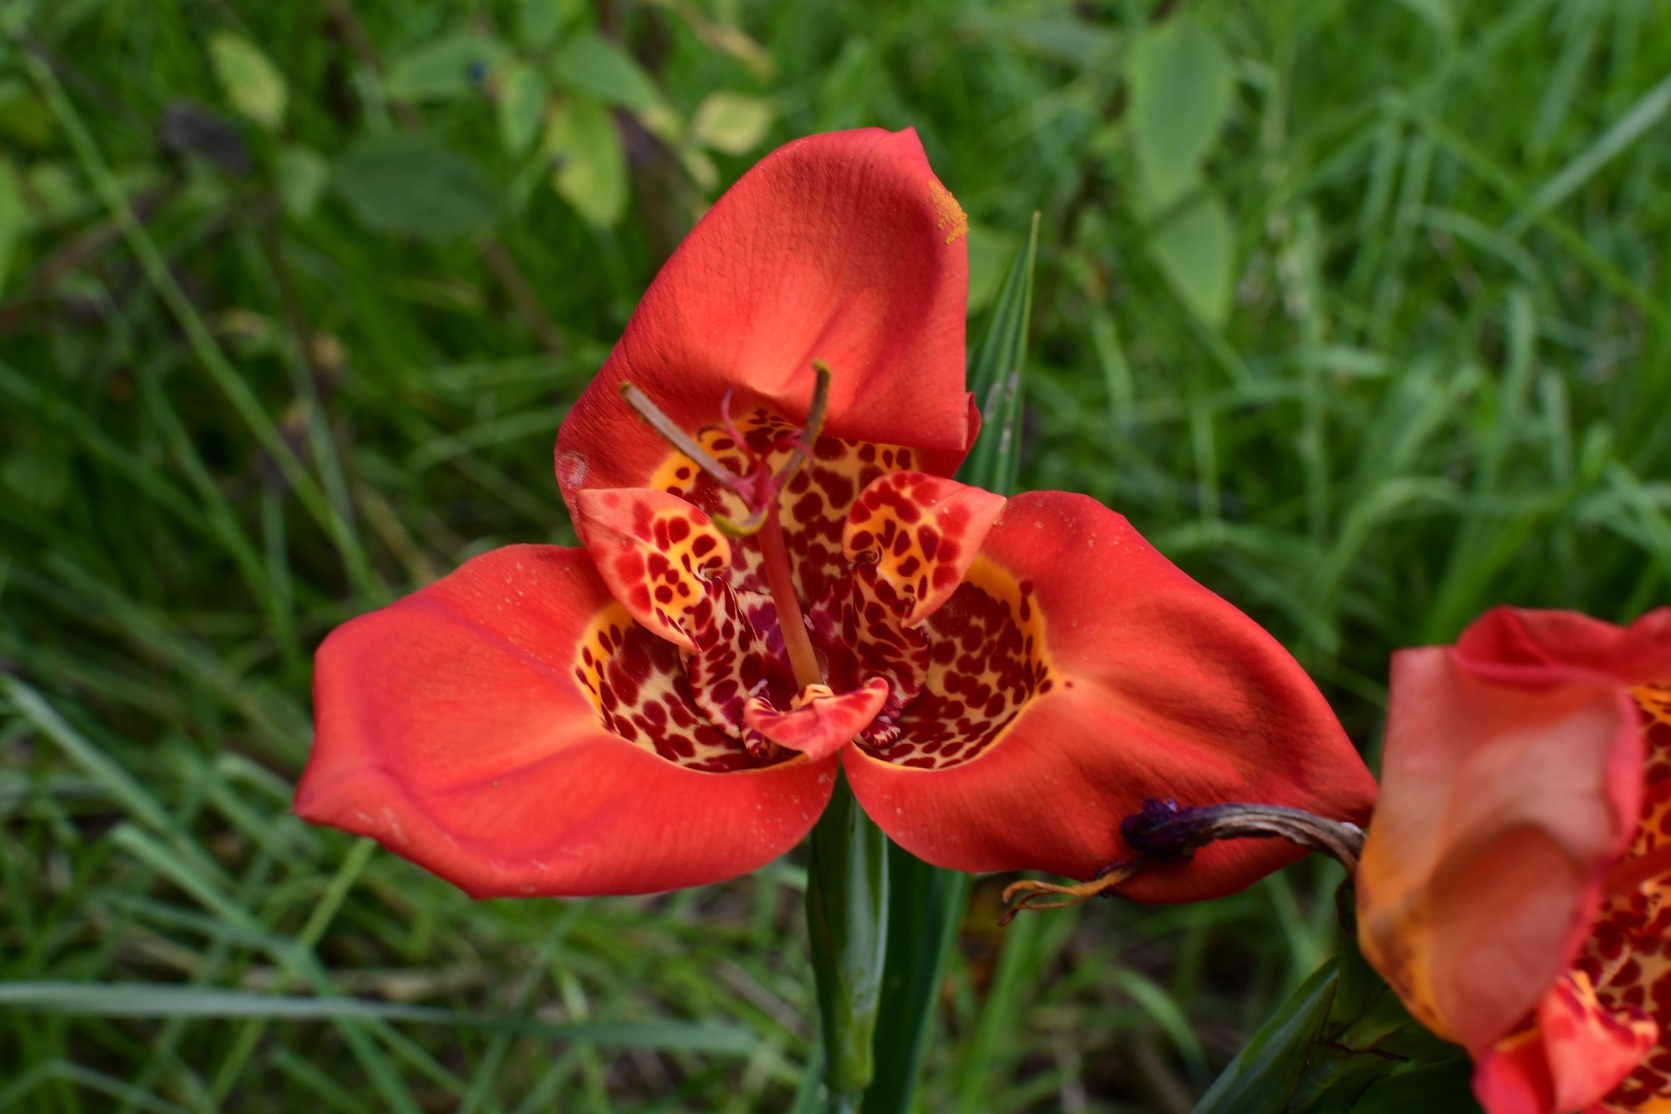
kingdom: Plantae
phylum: Tracheophyta
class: Liliopsida
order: Asparagales
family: Iridaceae
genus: Tigridia
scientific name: Tigridia pavonia
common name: Peacock-flower
